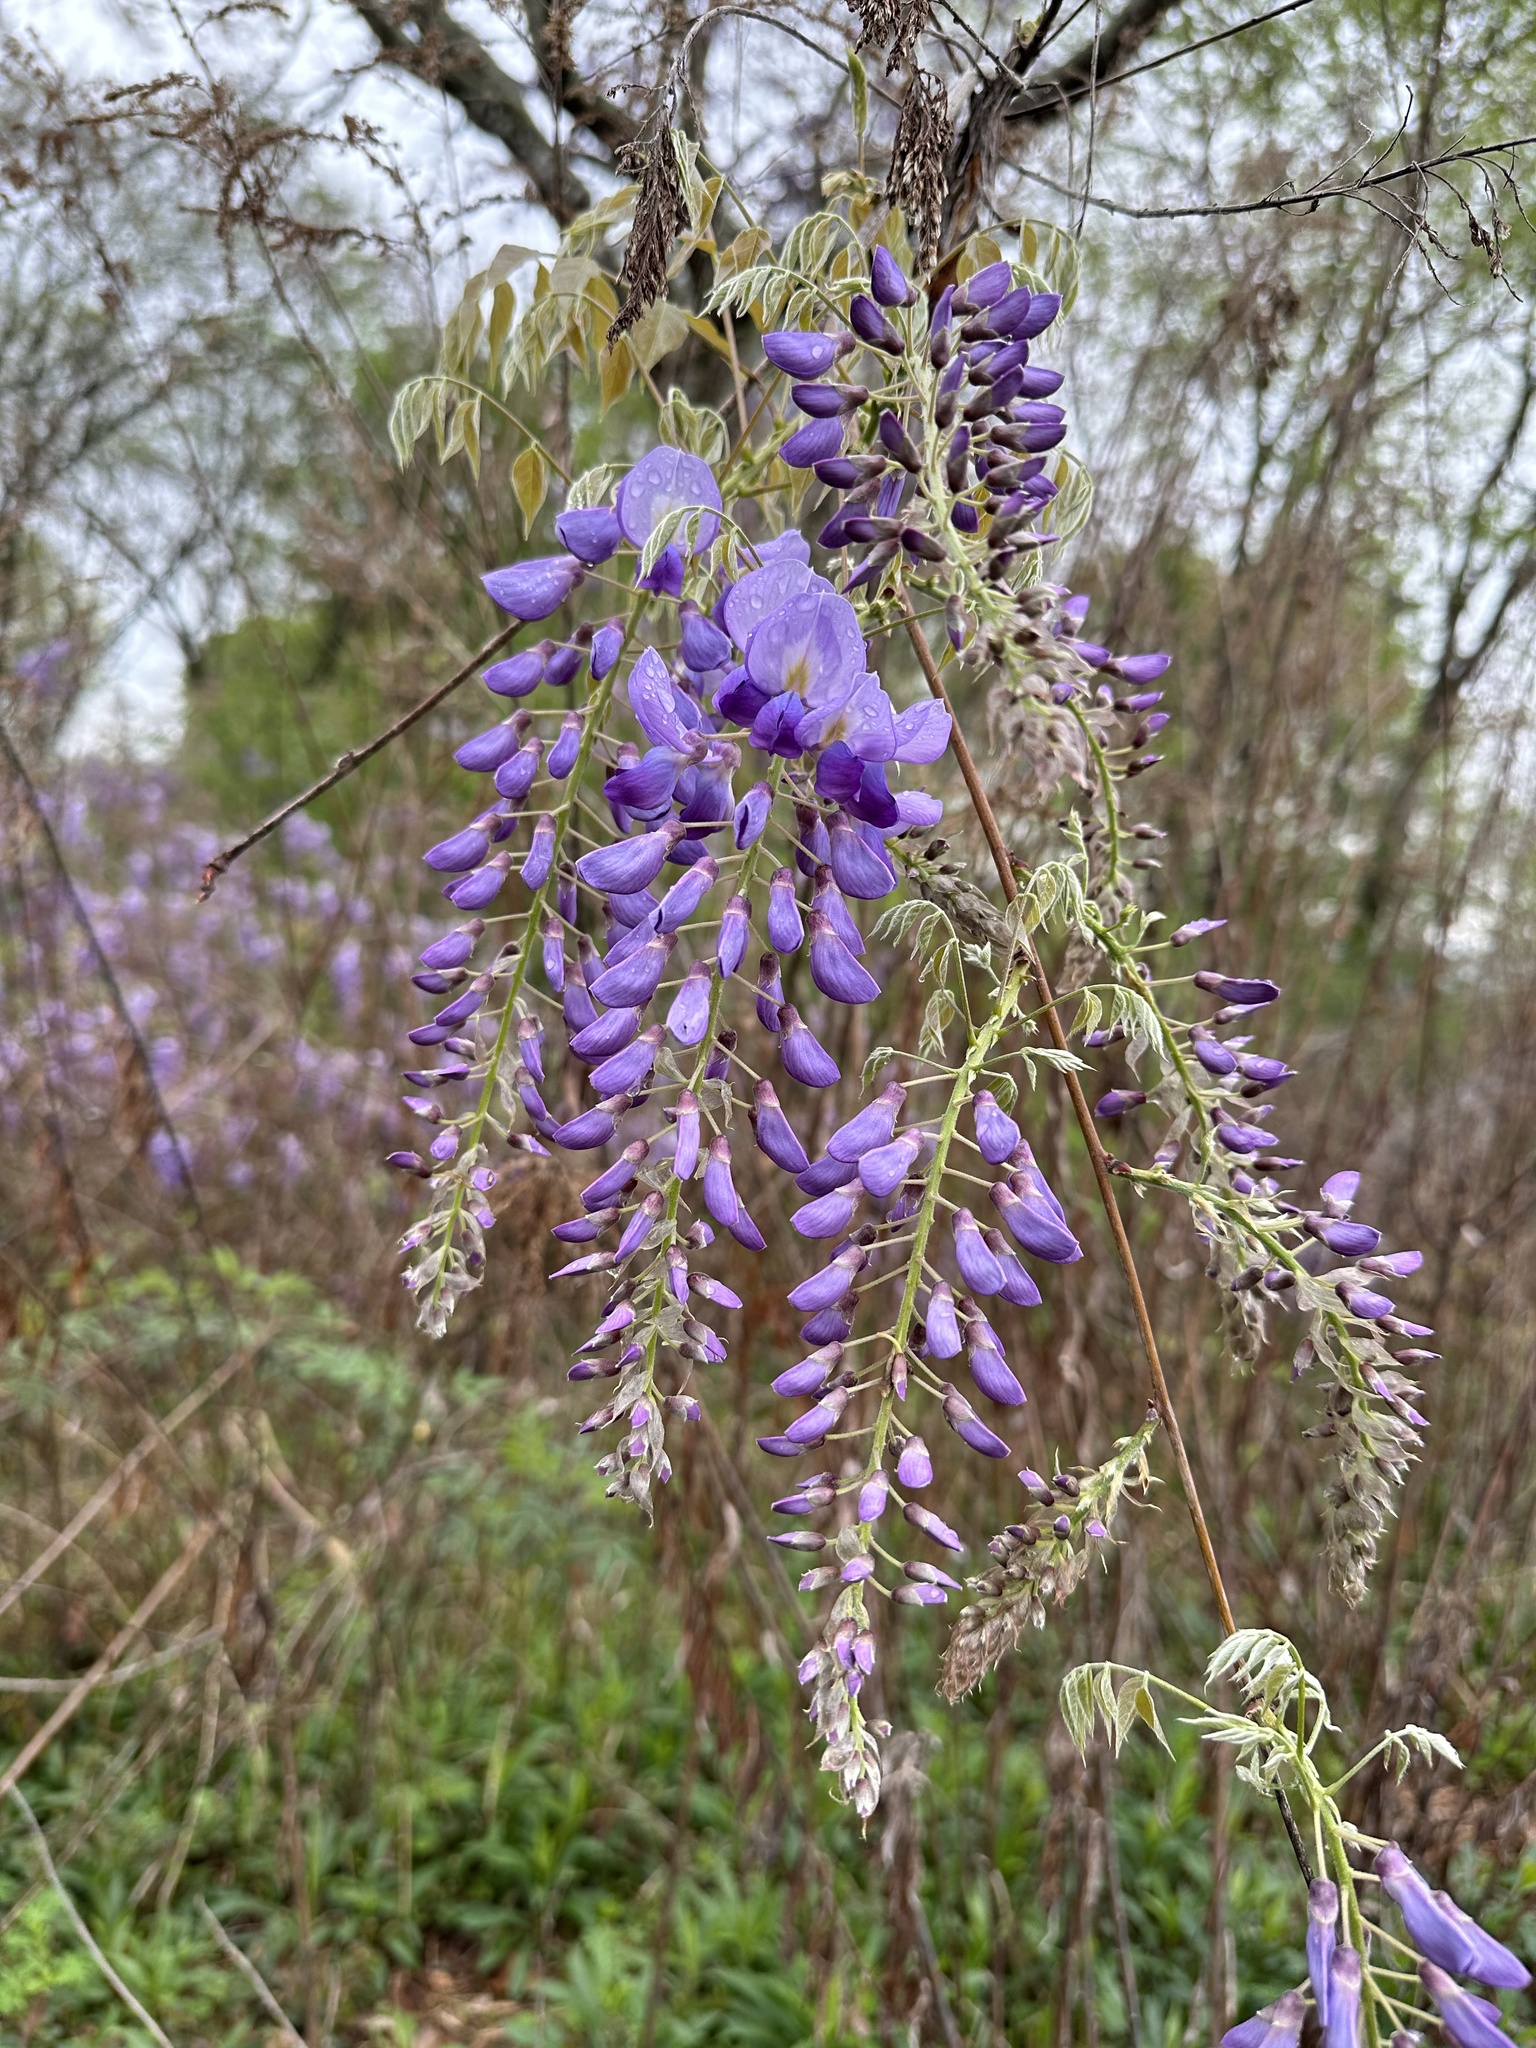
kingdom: Plantae
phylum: Tracheophyta
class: Magnoliopsida
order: Fabales
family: Fabaceae
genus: Wisteria
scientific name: Wisteria sinensis
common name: Chinese wisteria
